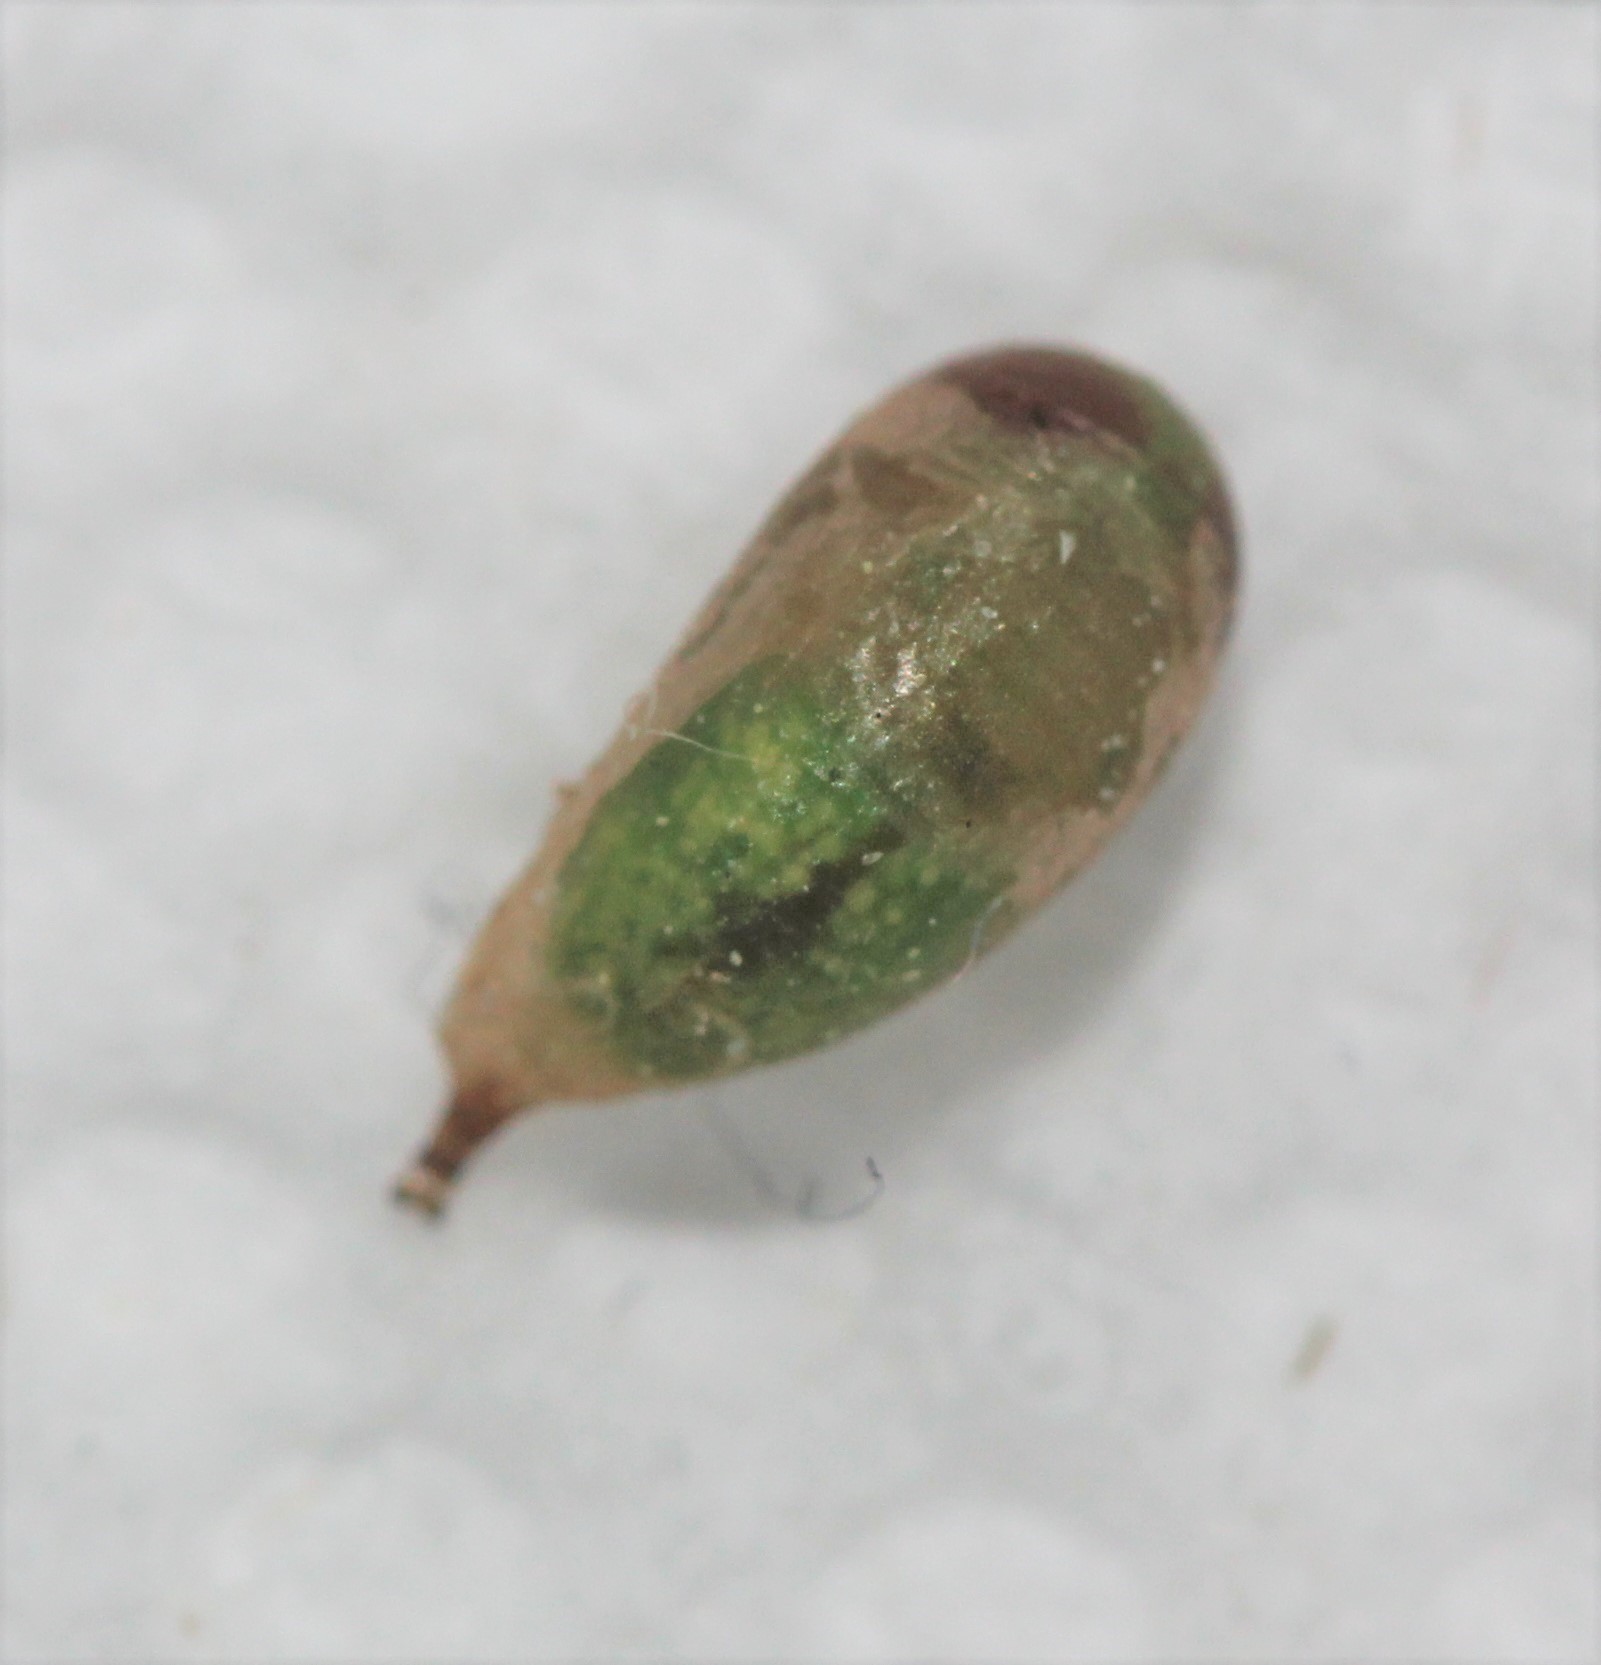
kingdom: Animalia
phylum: Arthropoda
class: Insecta
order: Diptera
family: Syrphidae
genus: Allograpta
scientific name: Allograpta obliqua
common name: Common oblique syrphid
